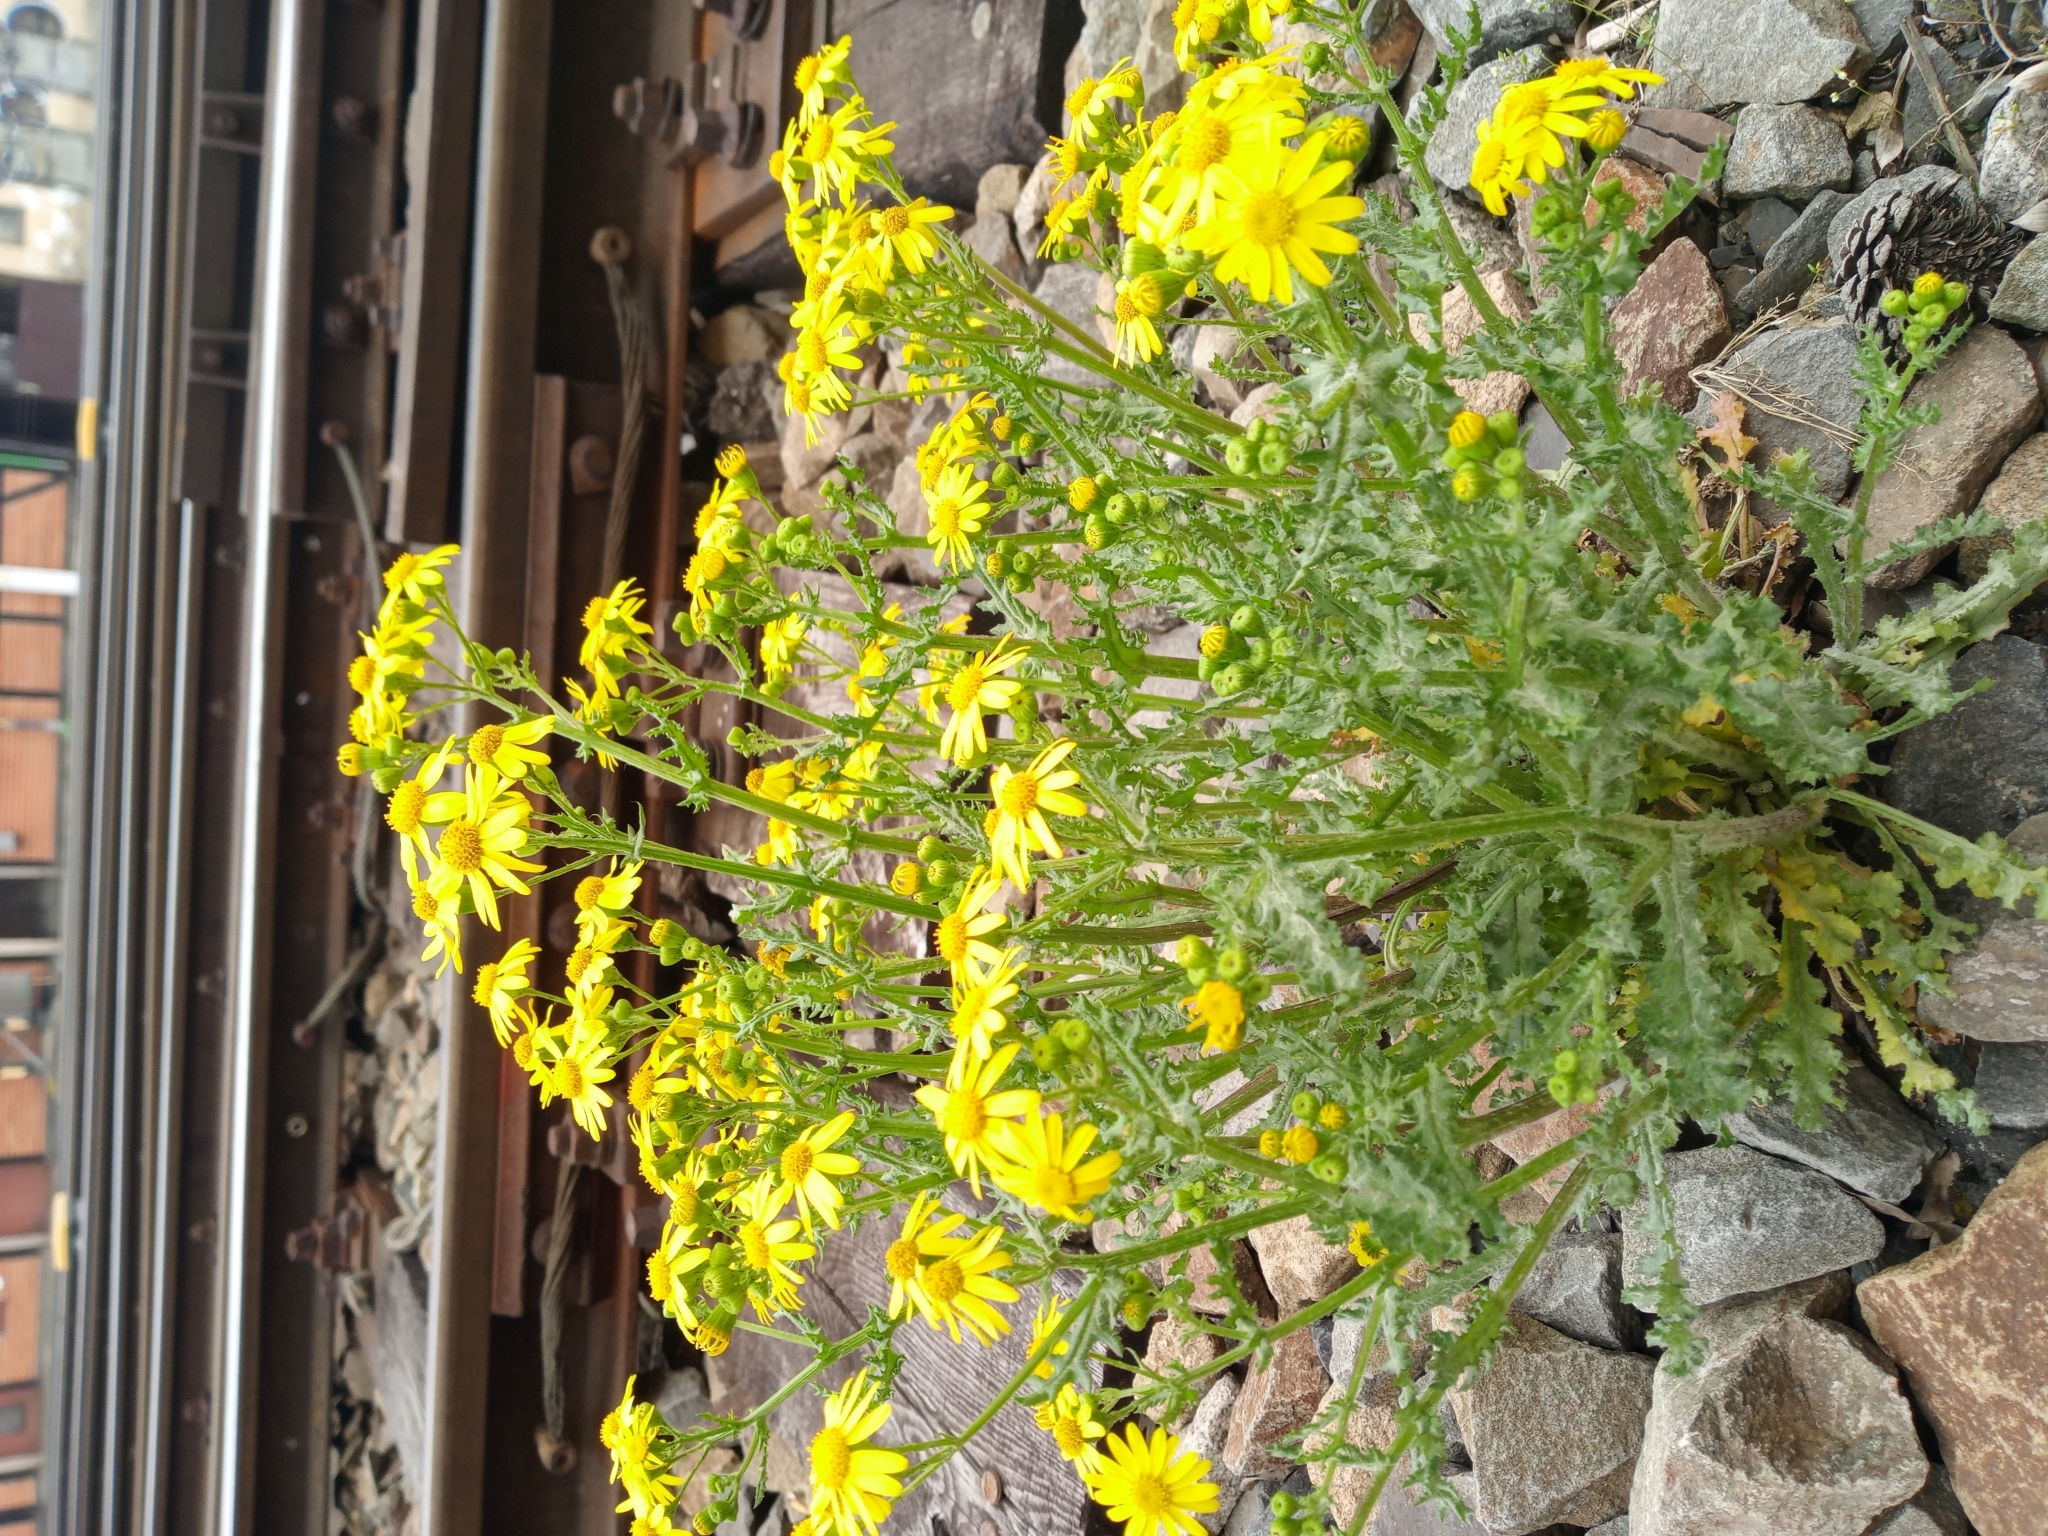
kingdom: Plantae
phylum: Tracheophyta
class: Magnoliopsida
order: Asterales
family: Asteraceae
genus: Senecio
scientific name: Senecio vernalis
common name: Eastern groundsel
